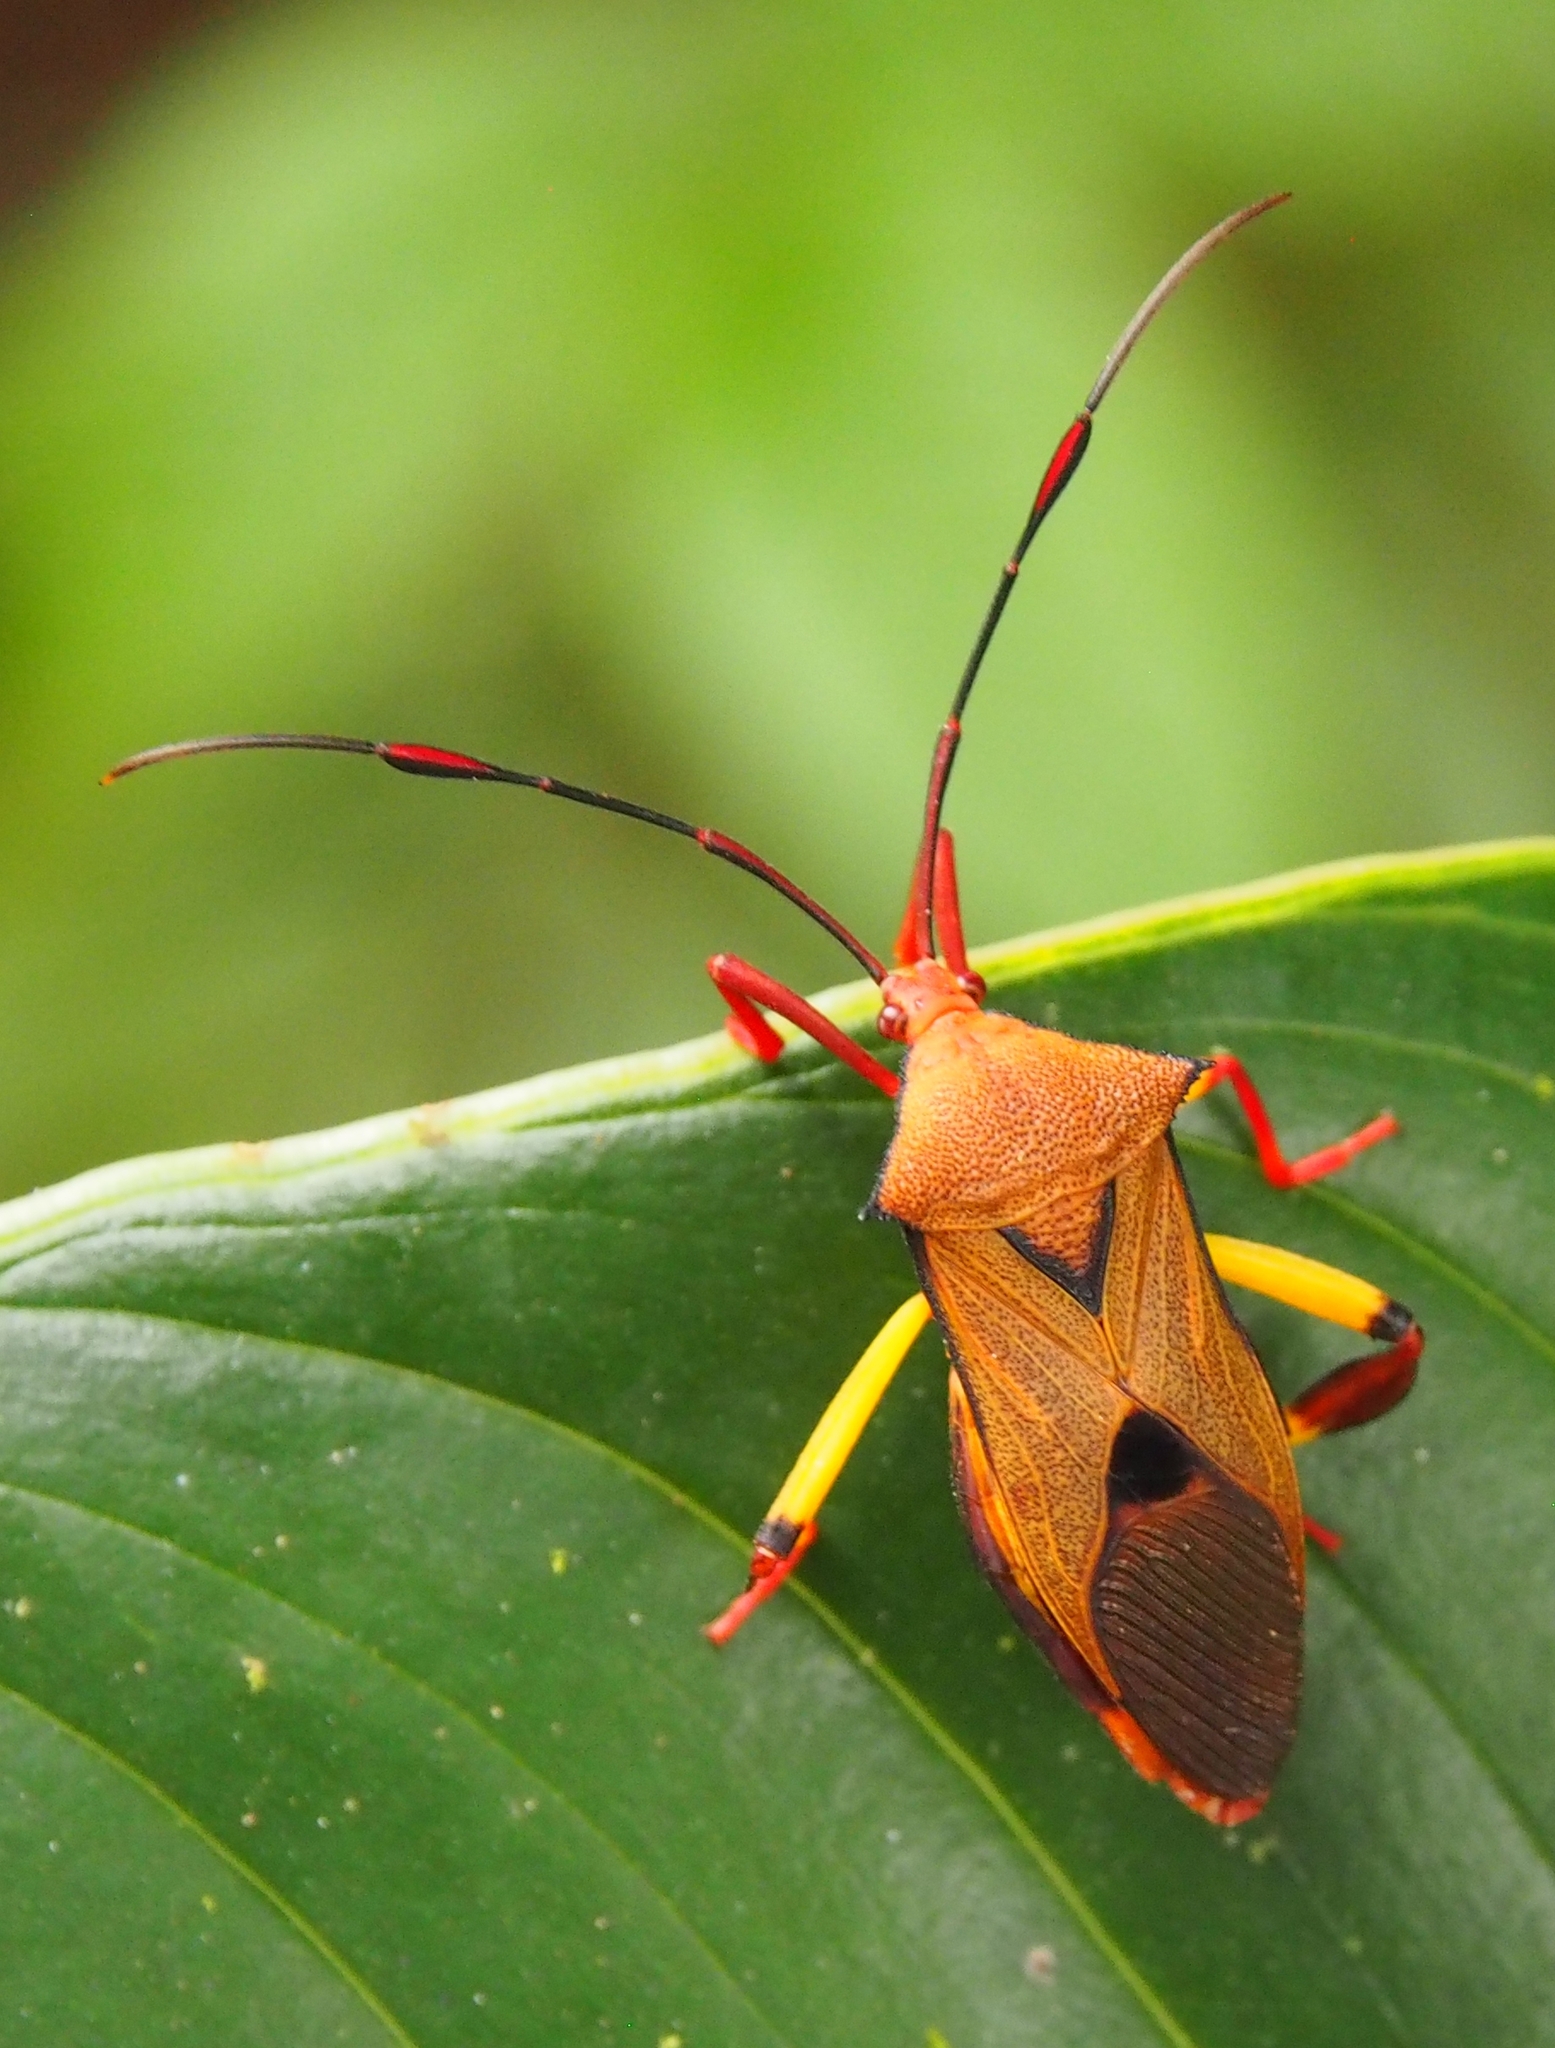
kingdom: Animalia
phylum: Arthropoda
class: Insecta
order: Hemiptera
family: Coreidae
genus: Melucha
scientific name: Melucha biolleyi
